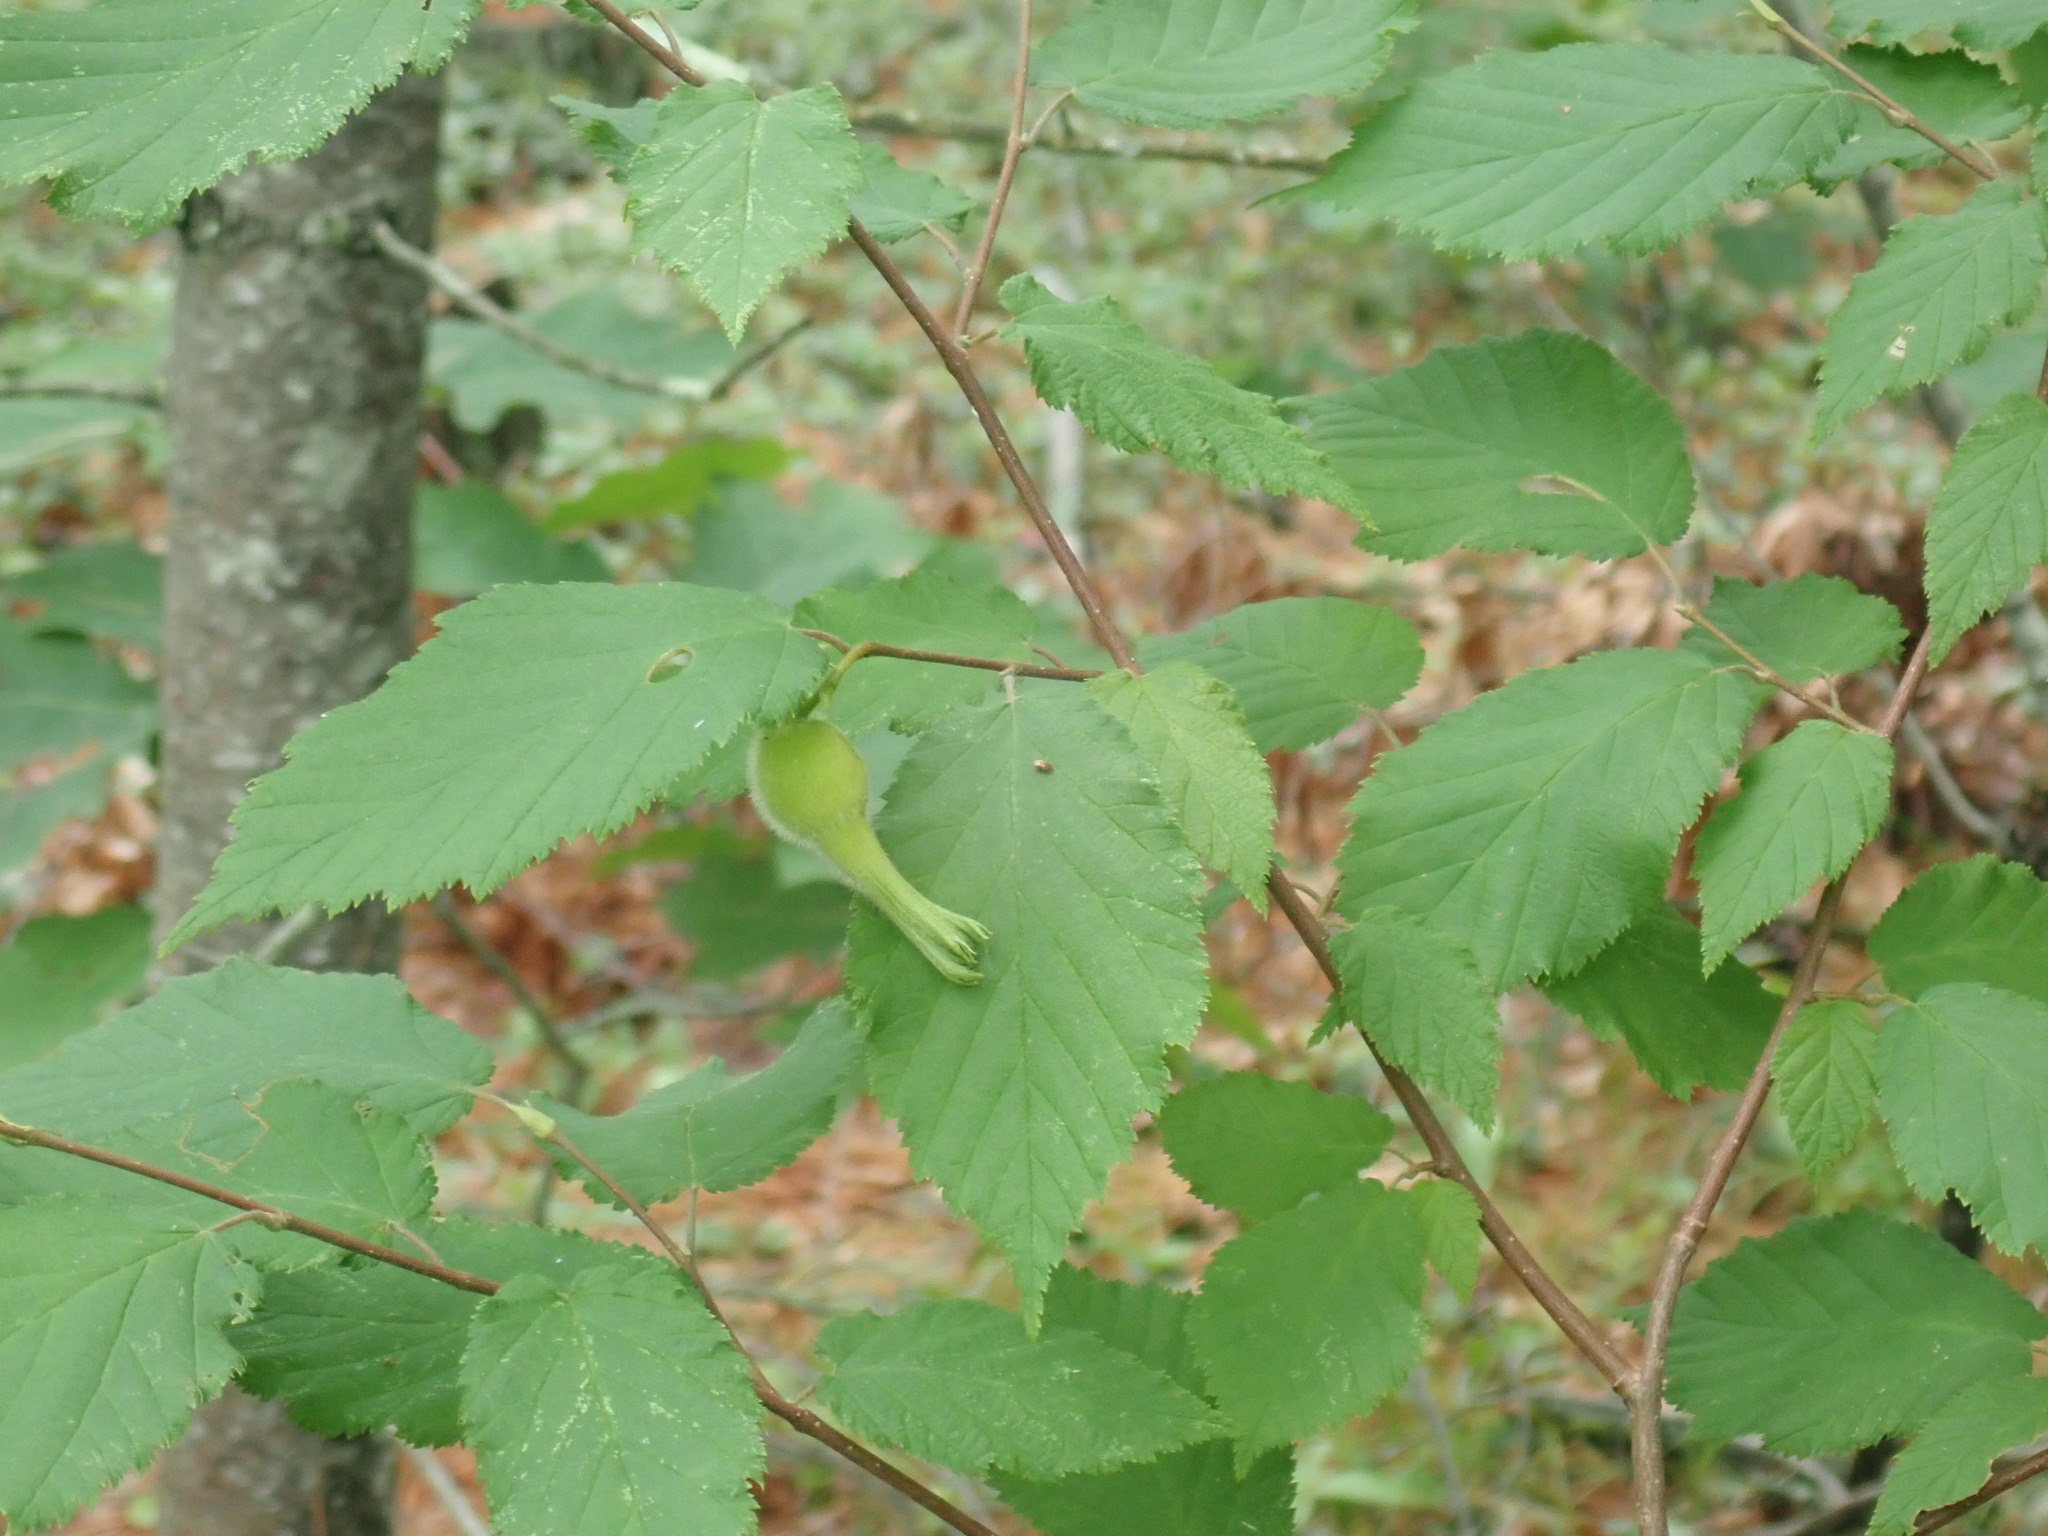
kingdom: Plantae
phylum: Tracheophyta
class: Magnoliopsida
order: Fagales
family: Betulaceae
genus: Corylus
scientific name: Corylus cornuta
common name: Beaked hazel
